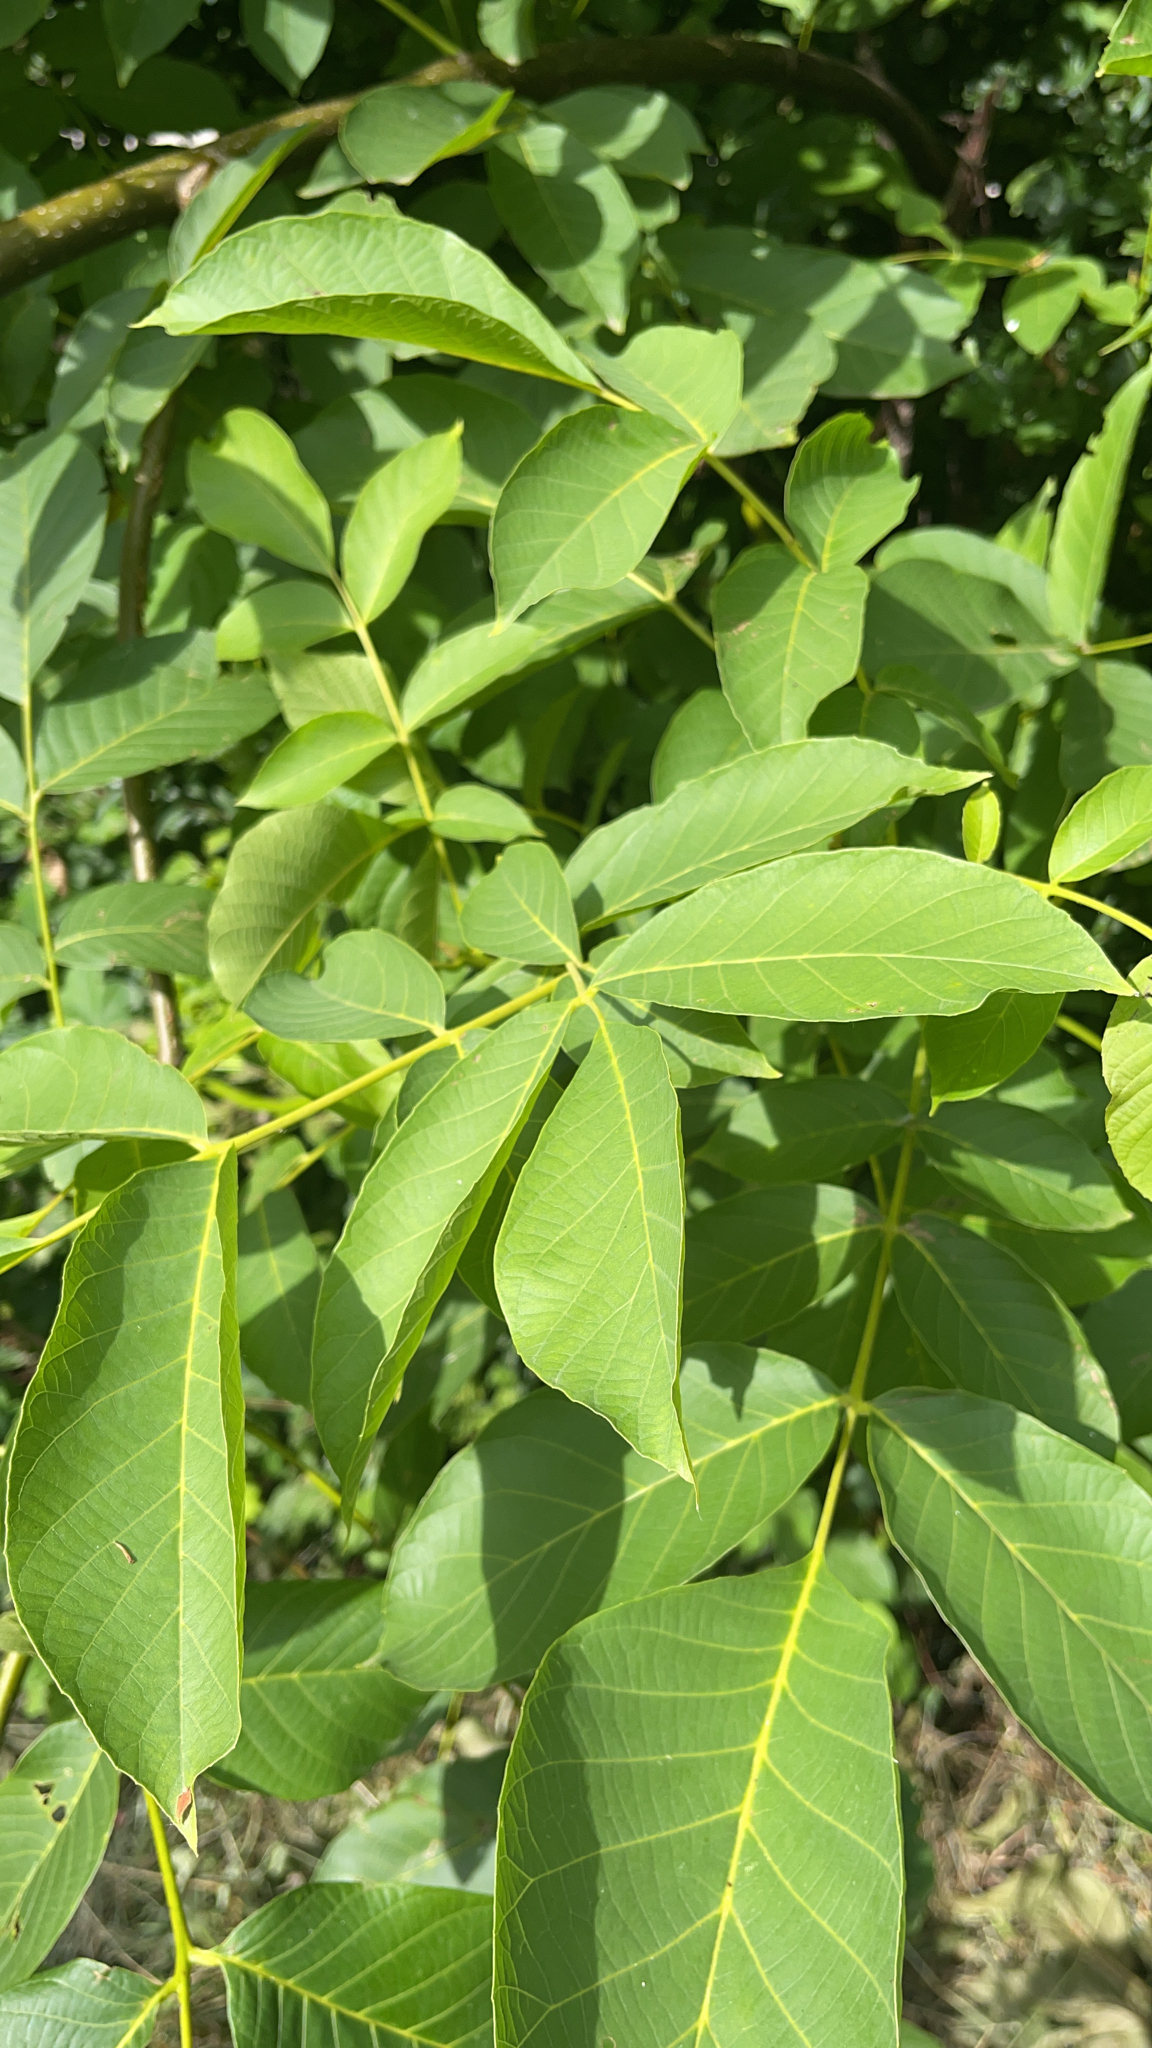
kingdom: Plantae
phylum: Tracheophyta
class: Magnoliopsida
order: Fagales
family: Juglandaceae
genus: Juglans
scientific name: Juglans regia
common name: Walnut
